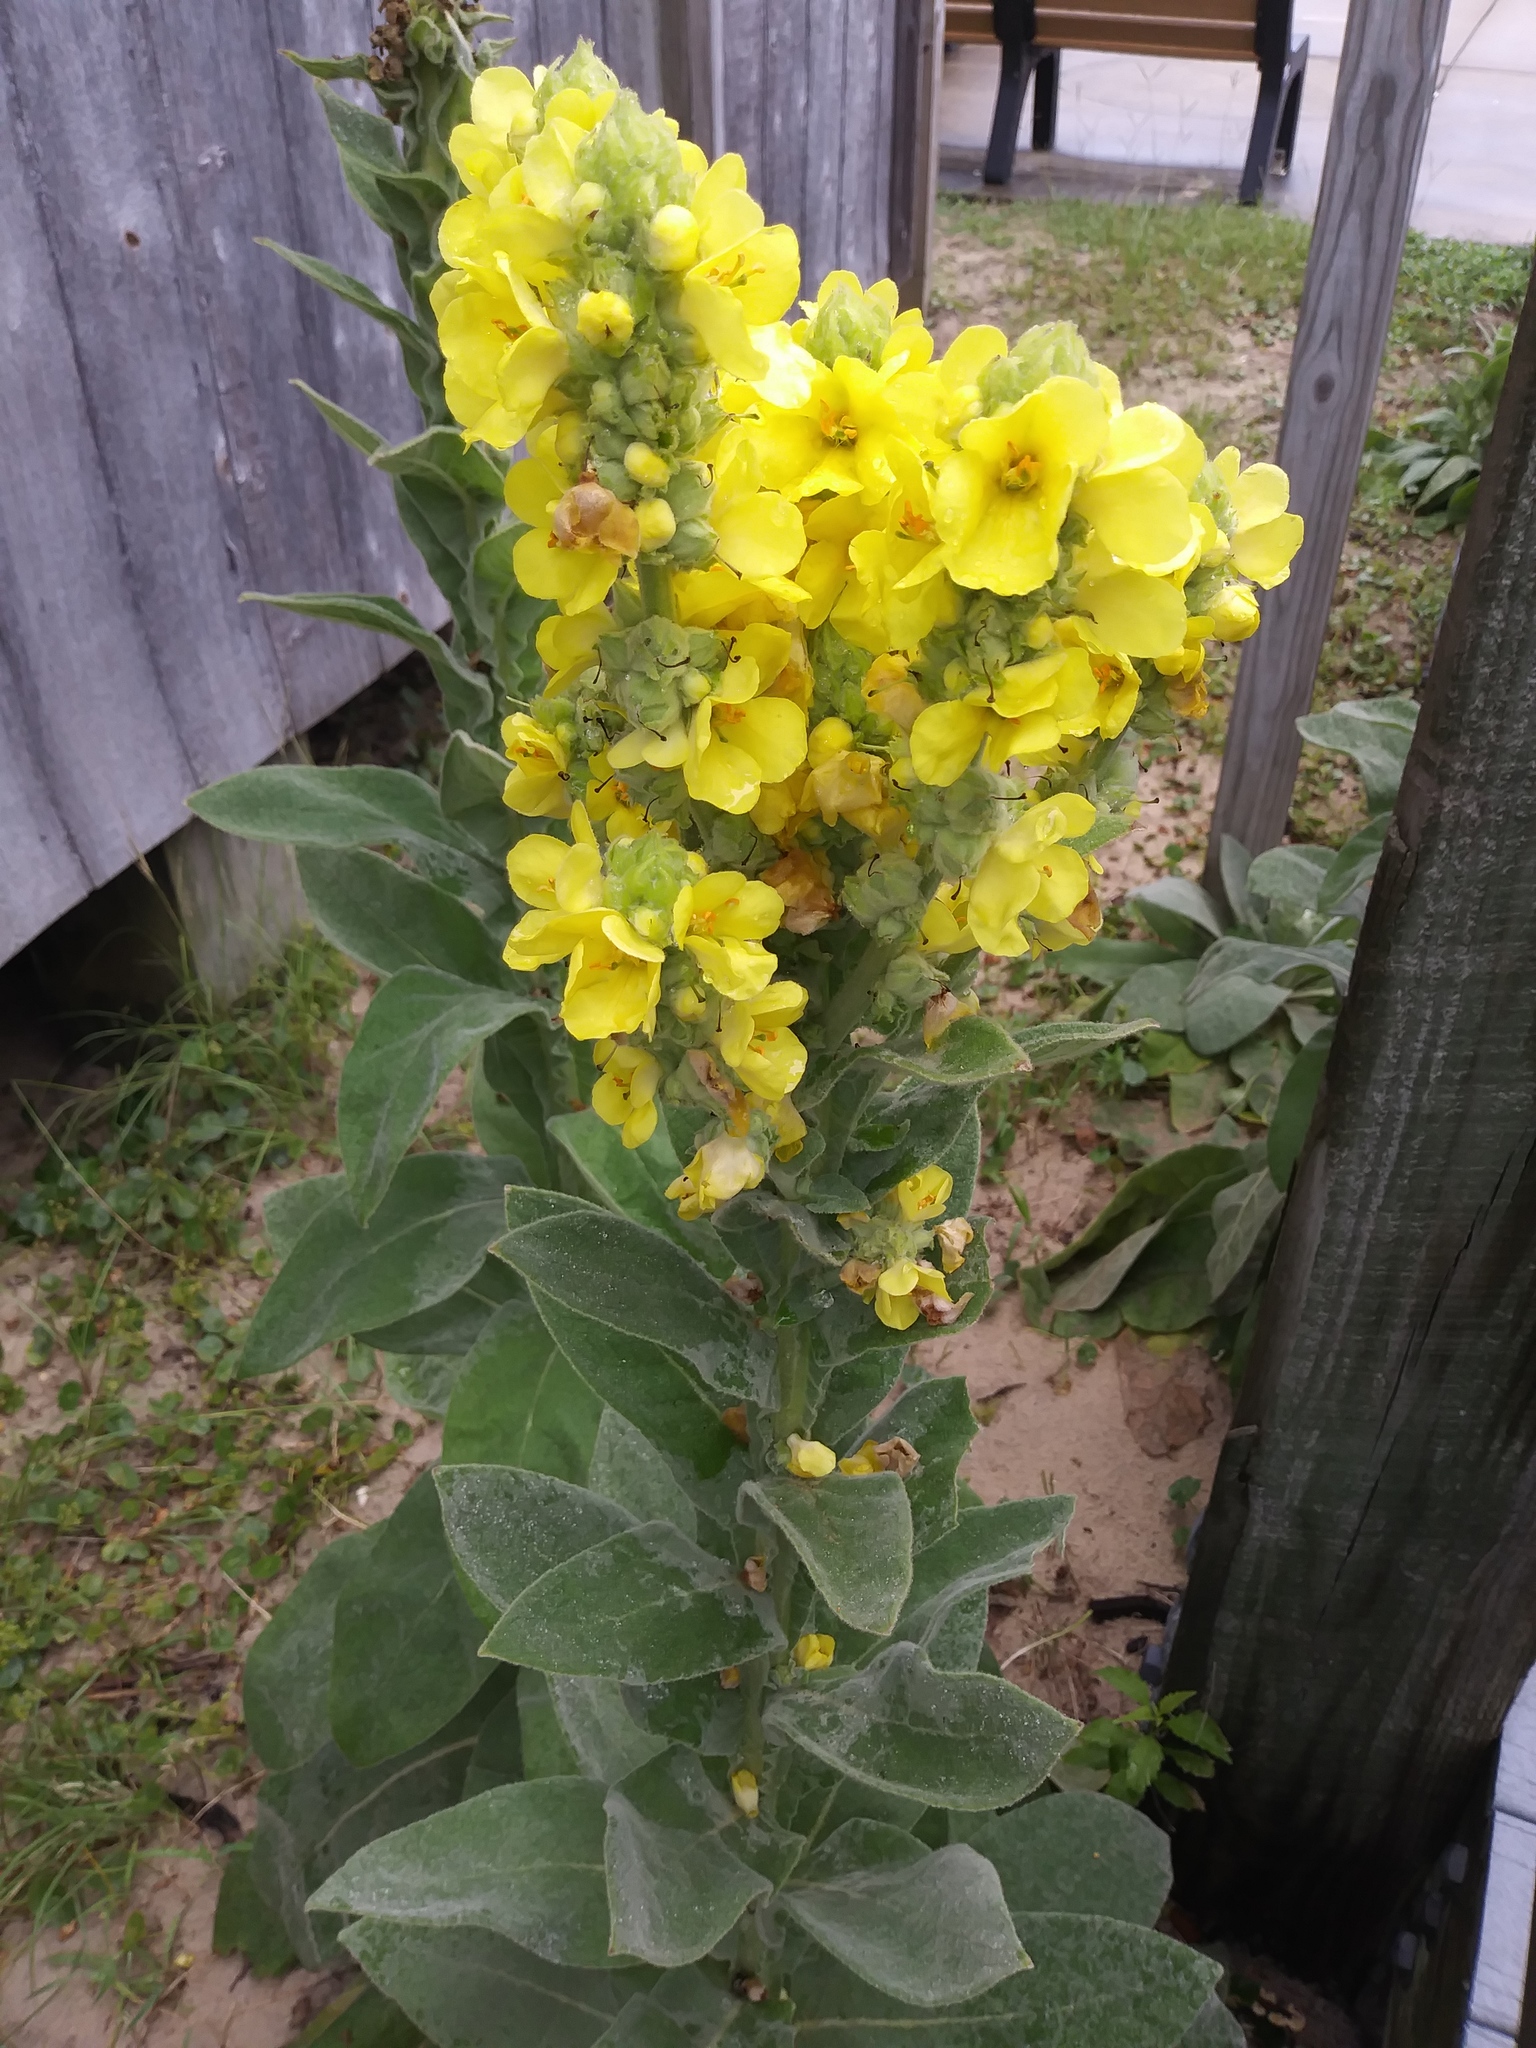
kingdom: Plantae
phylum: Tracheophyta
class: Magnoliopsida
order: Lamiales
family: Scrophulariaceae
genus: Verbascum
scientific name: Verbascum thapsus
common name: Common mullein
